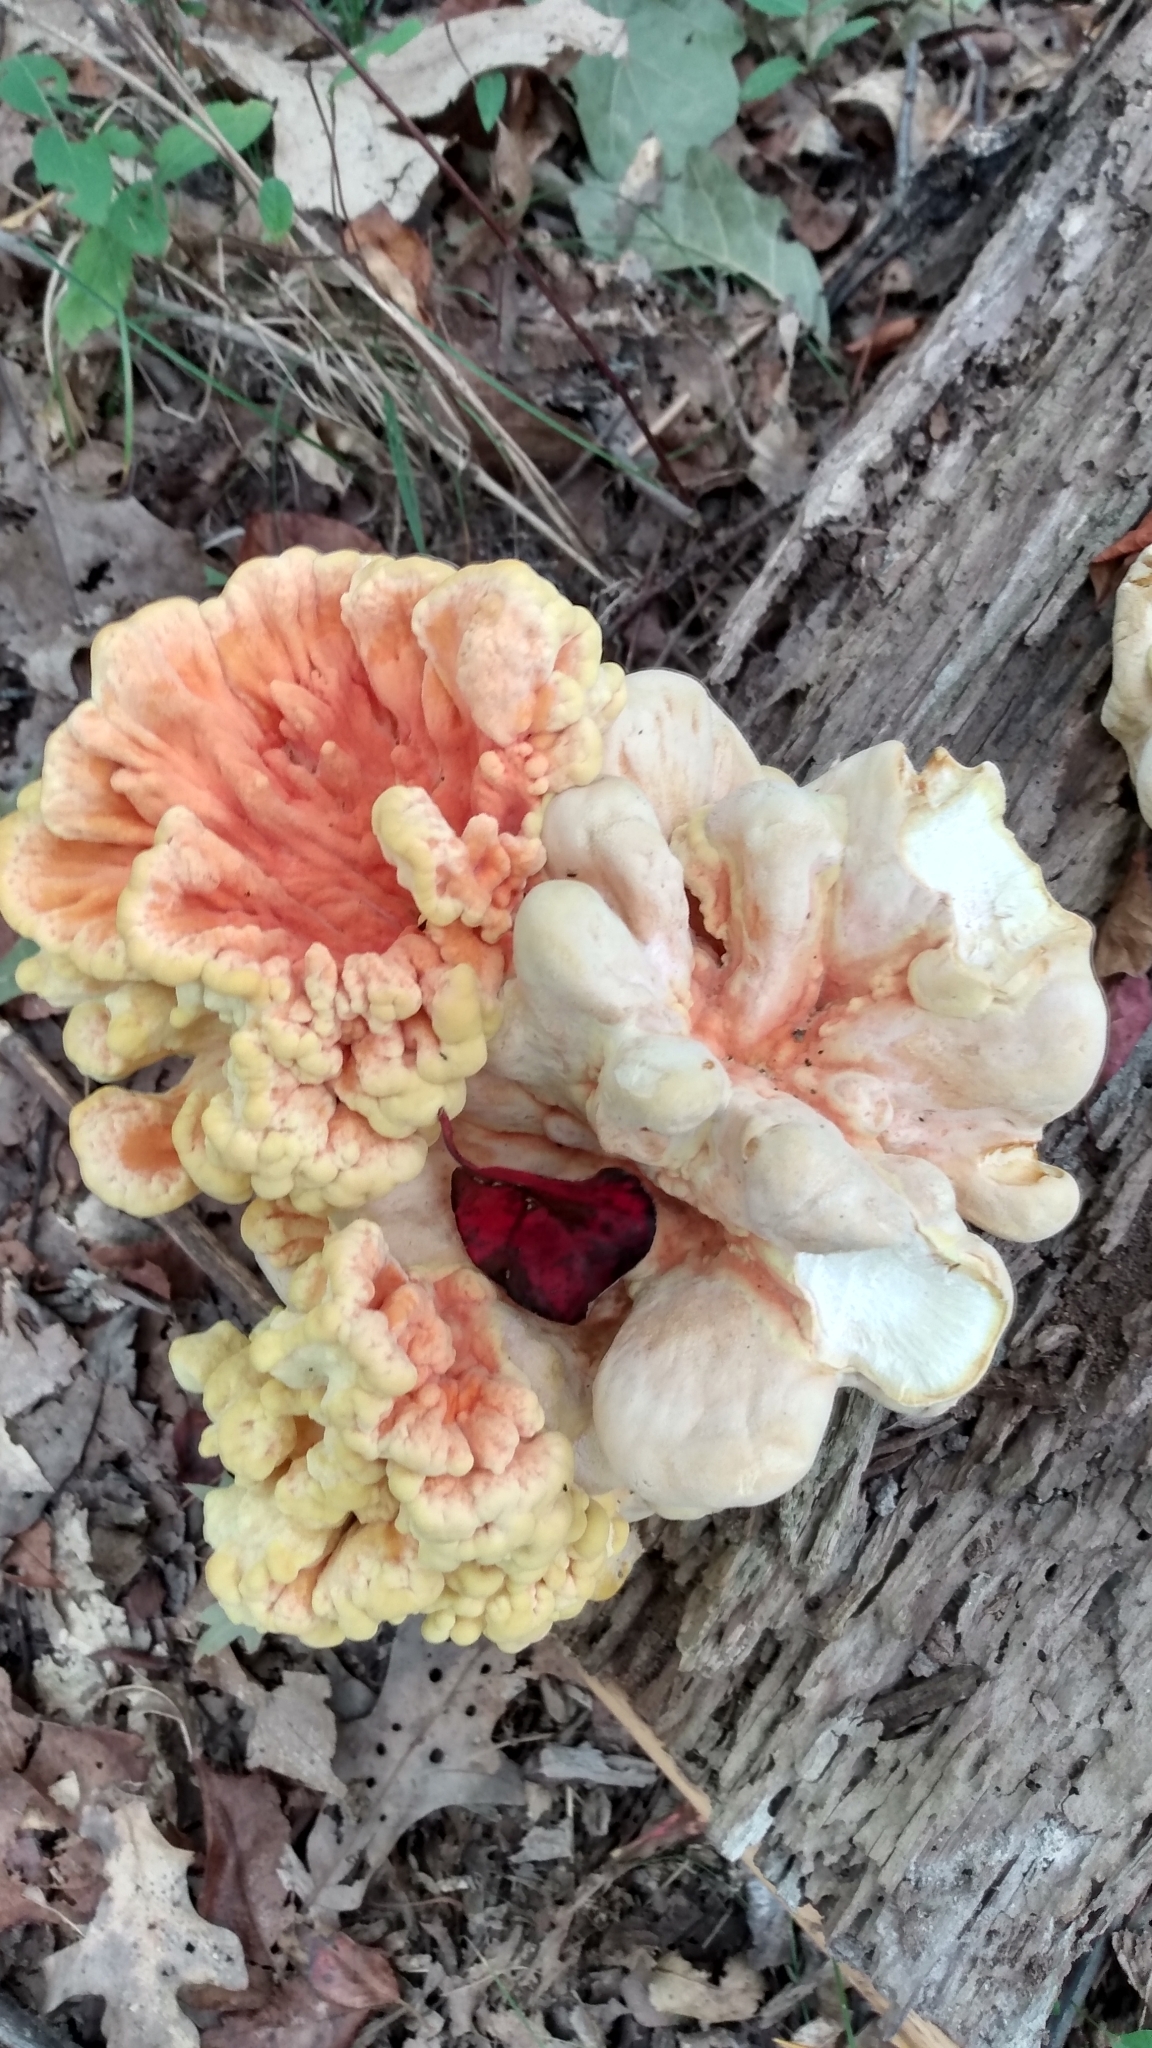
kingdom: Fungi
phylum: Basidiomycota
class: Agaricomycetes
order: Polyporales
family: Laetiporaceae
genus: Laetiporus
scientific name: Laetiporus sulphureus
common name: Chicken of the woods
